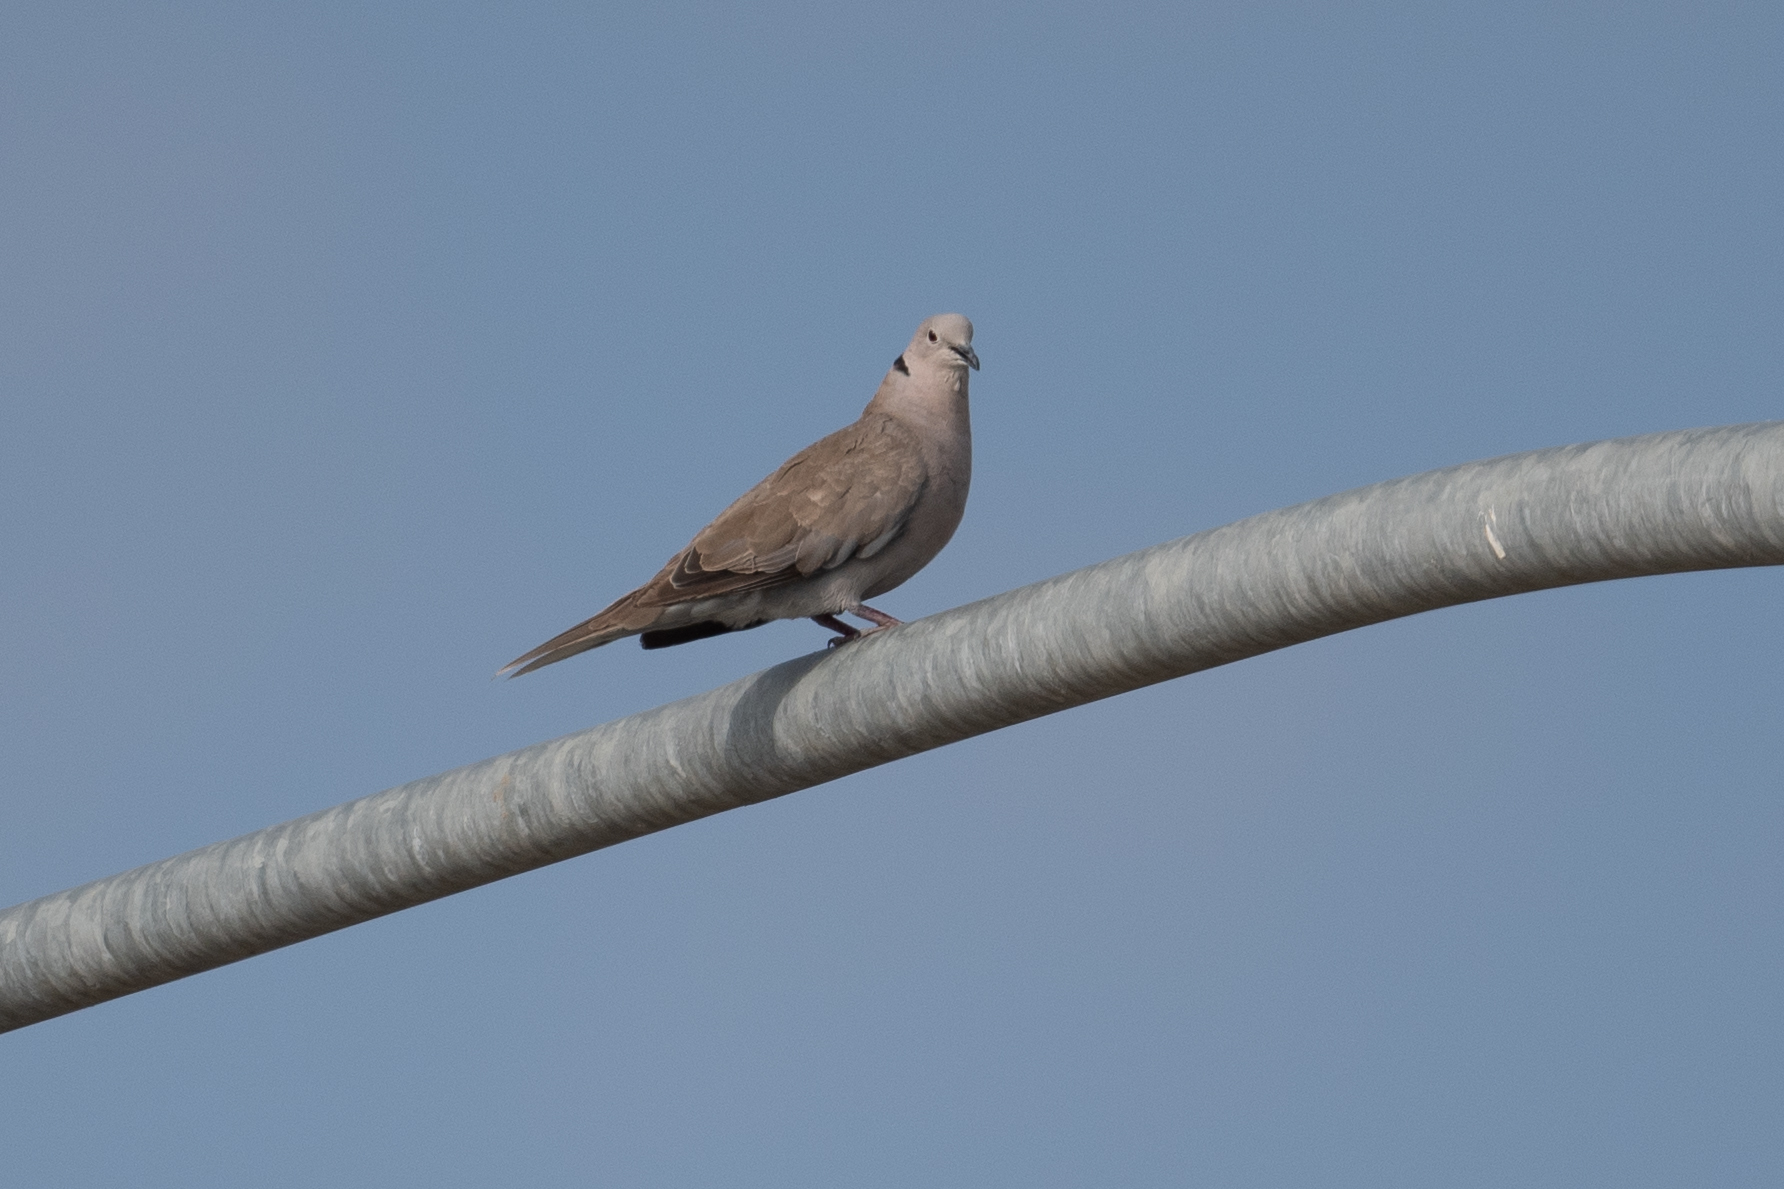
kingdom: Animalia
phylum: Chordata
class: Aves
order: Columbiformes
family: Columbidae
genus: Streptopelia
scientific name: Streptopelia decaocto
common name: Eurasian collared dove
